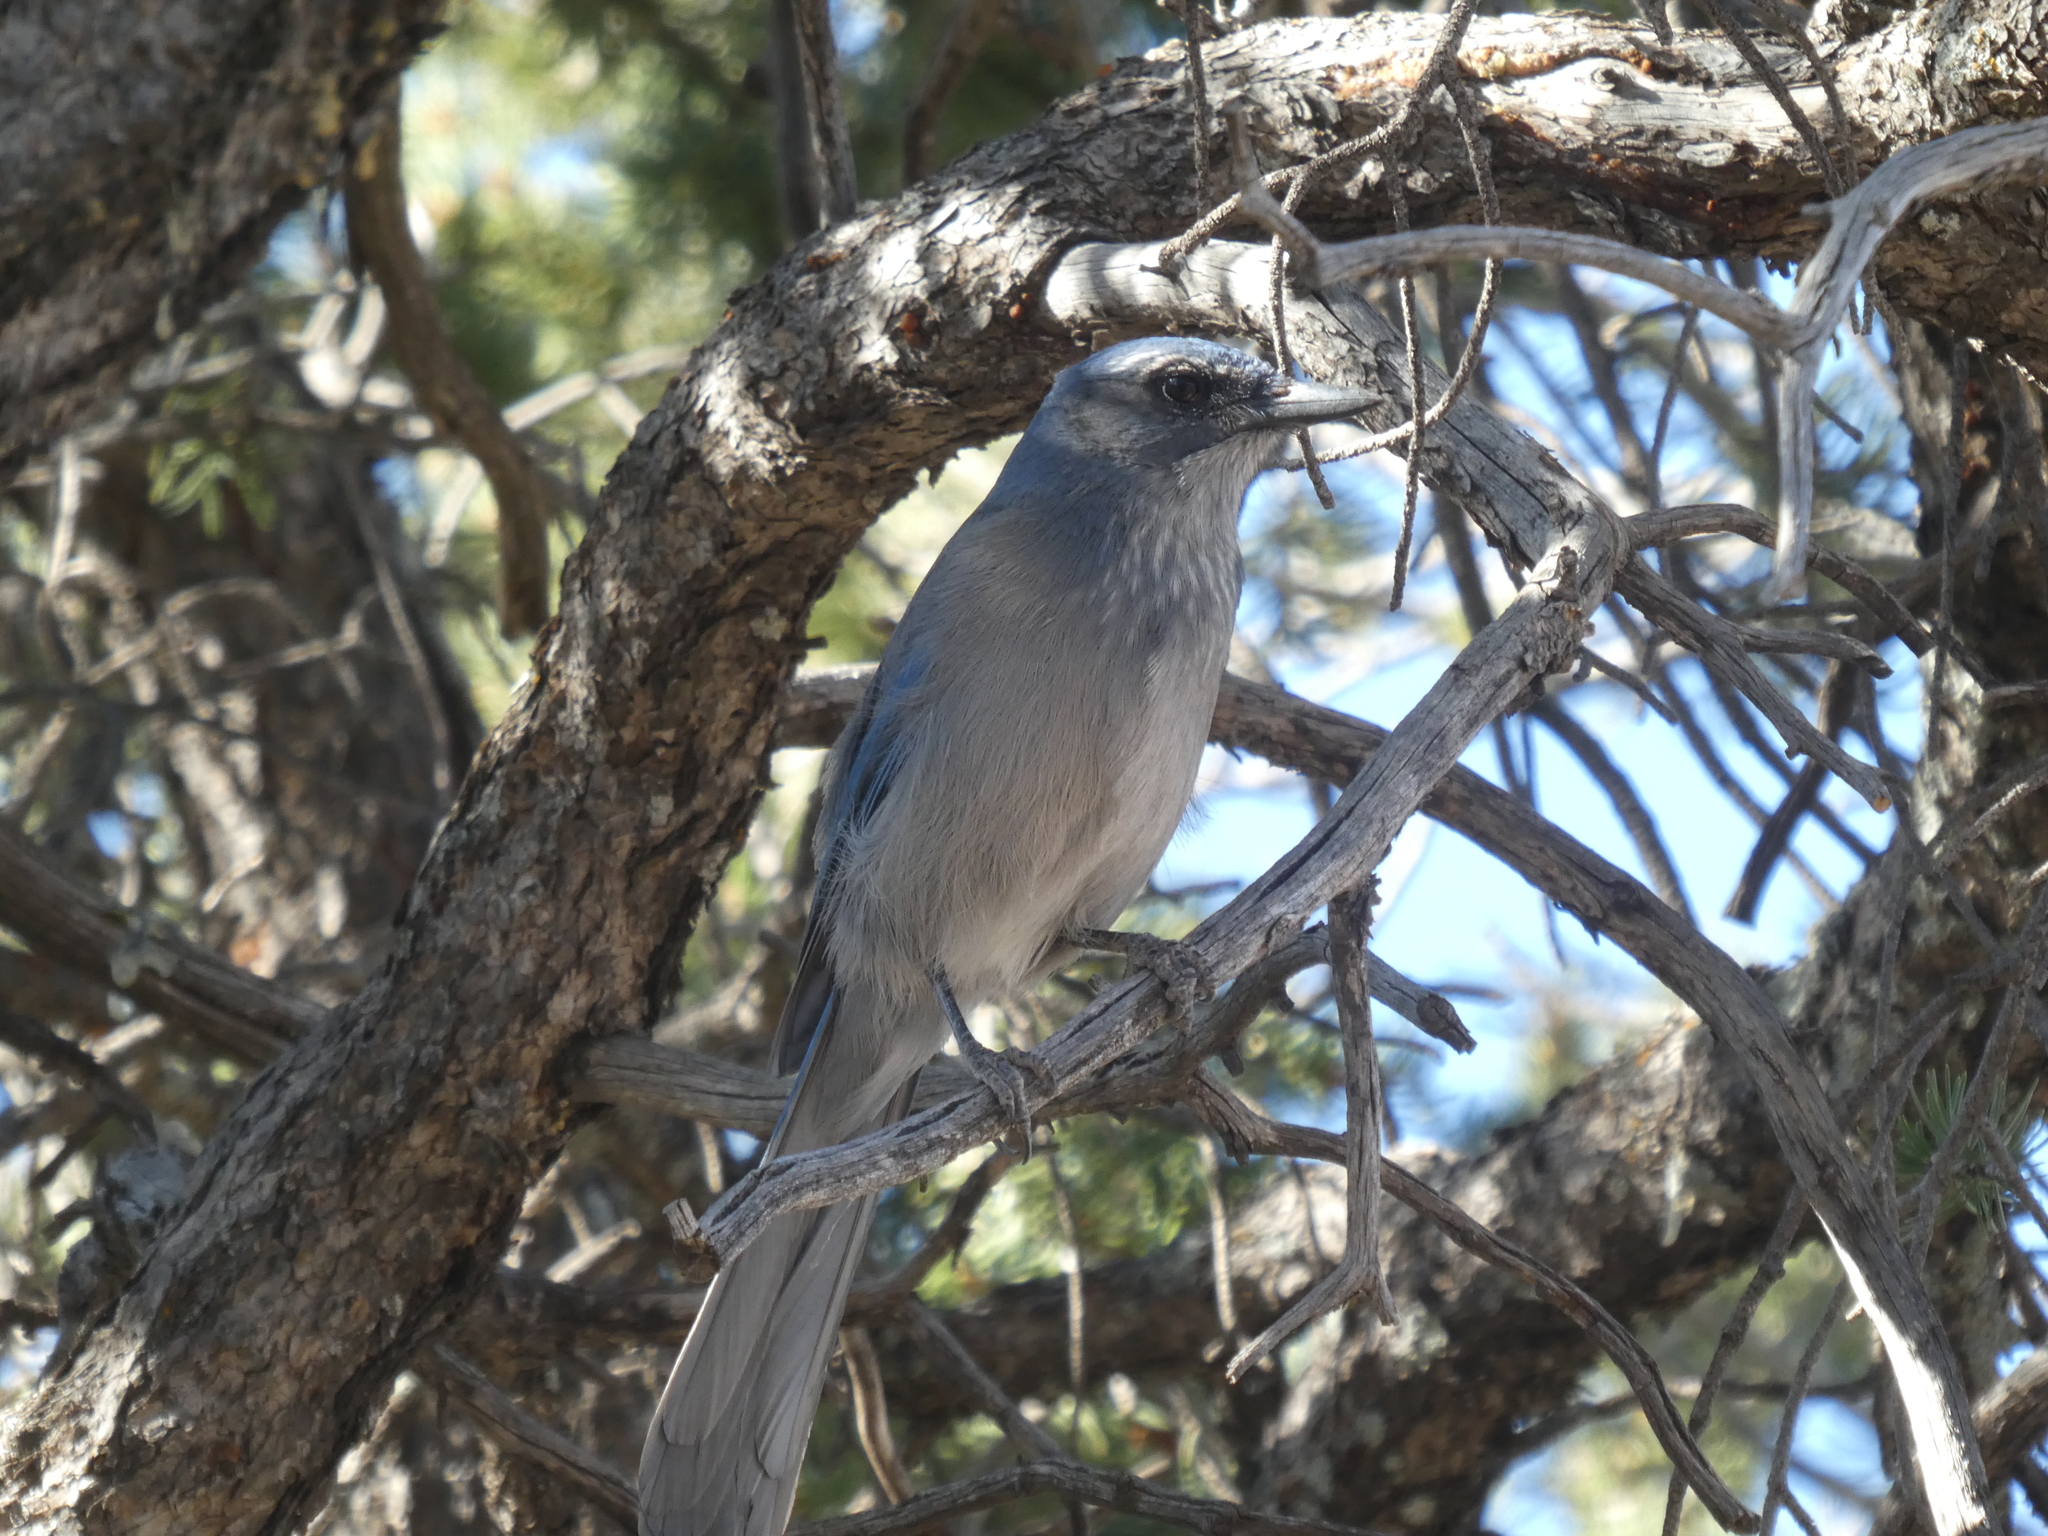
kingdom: Animalia
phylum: Chordata
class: Aves
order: Passeriformes
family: Corvidae
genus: Aphelocoma
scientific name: Aphelocoma woodhouseii
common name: Woodhouse's scrub-jay
